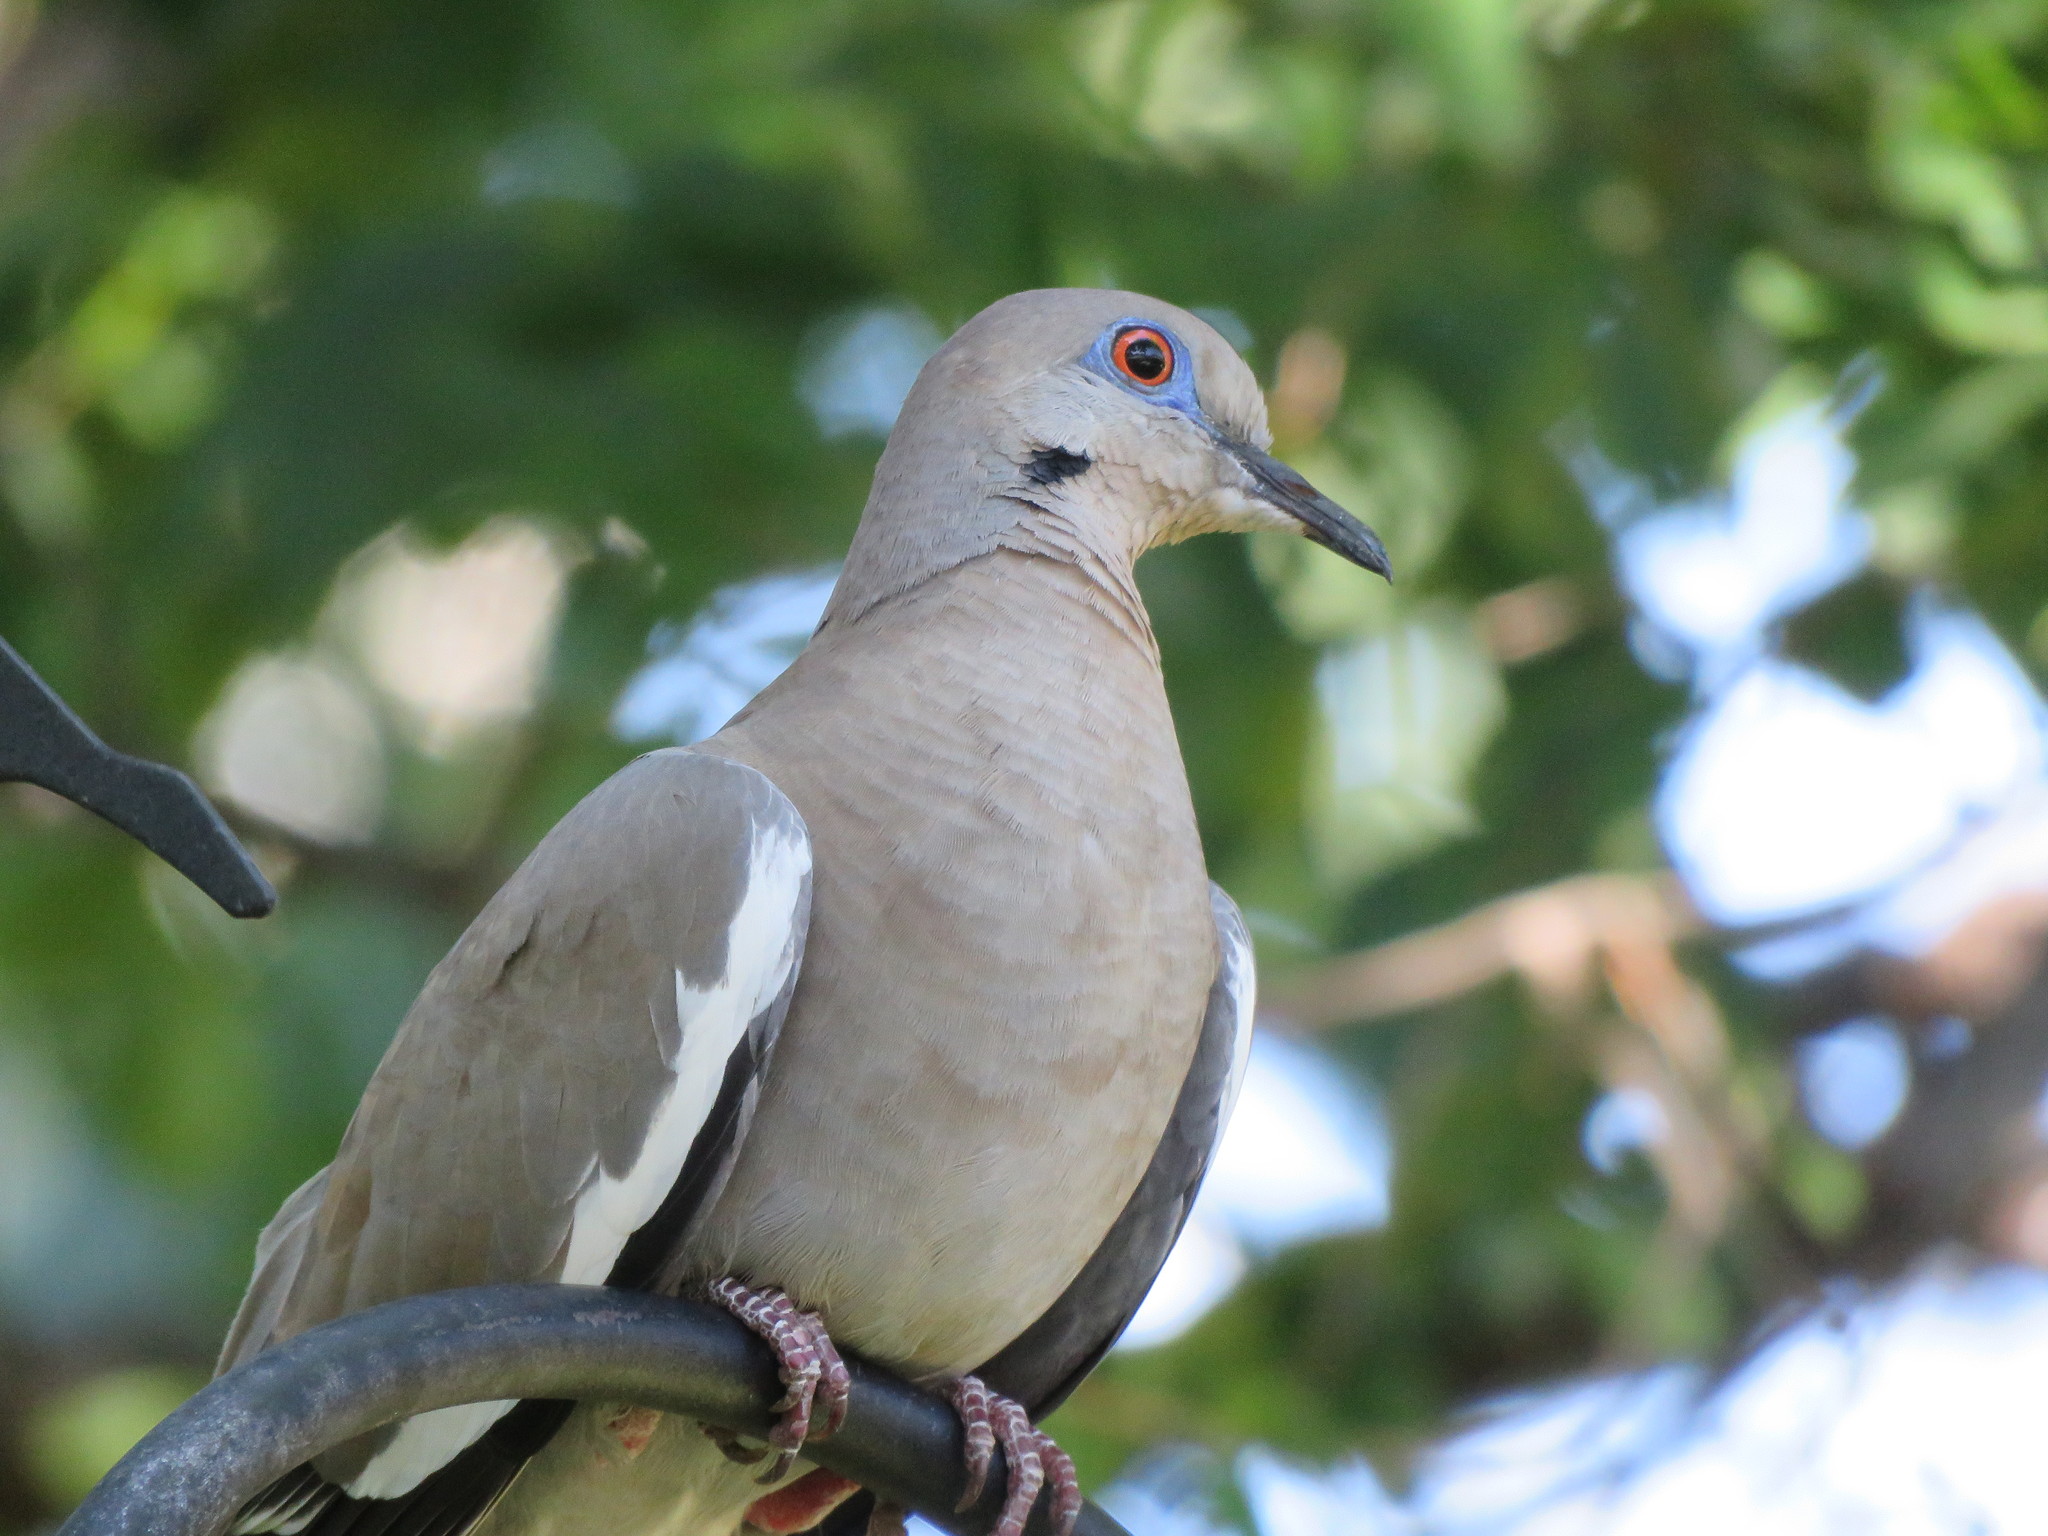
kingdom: Animalia
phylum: Chordata
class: Aves
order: Columbiformes
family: Columbidae
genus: Zenaida
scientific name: Zenaida asiatica
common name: White-winged dove
